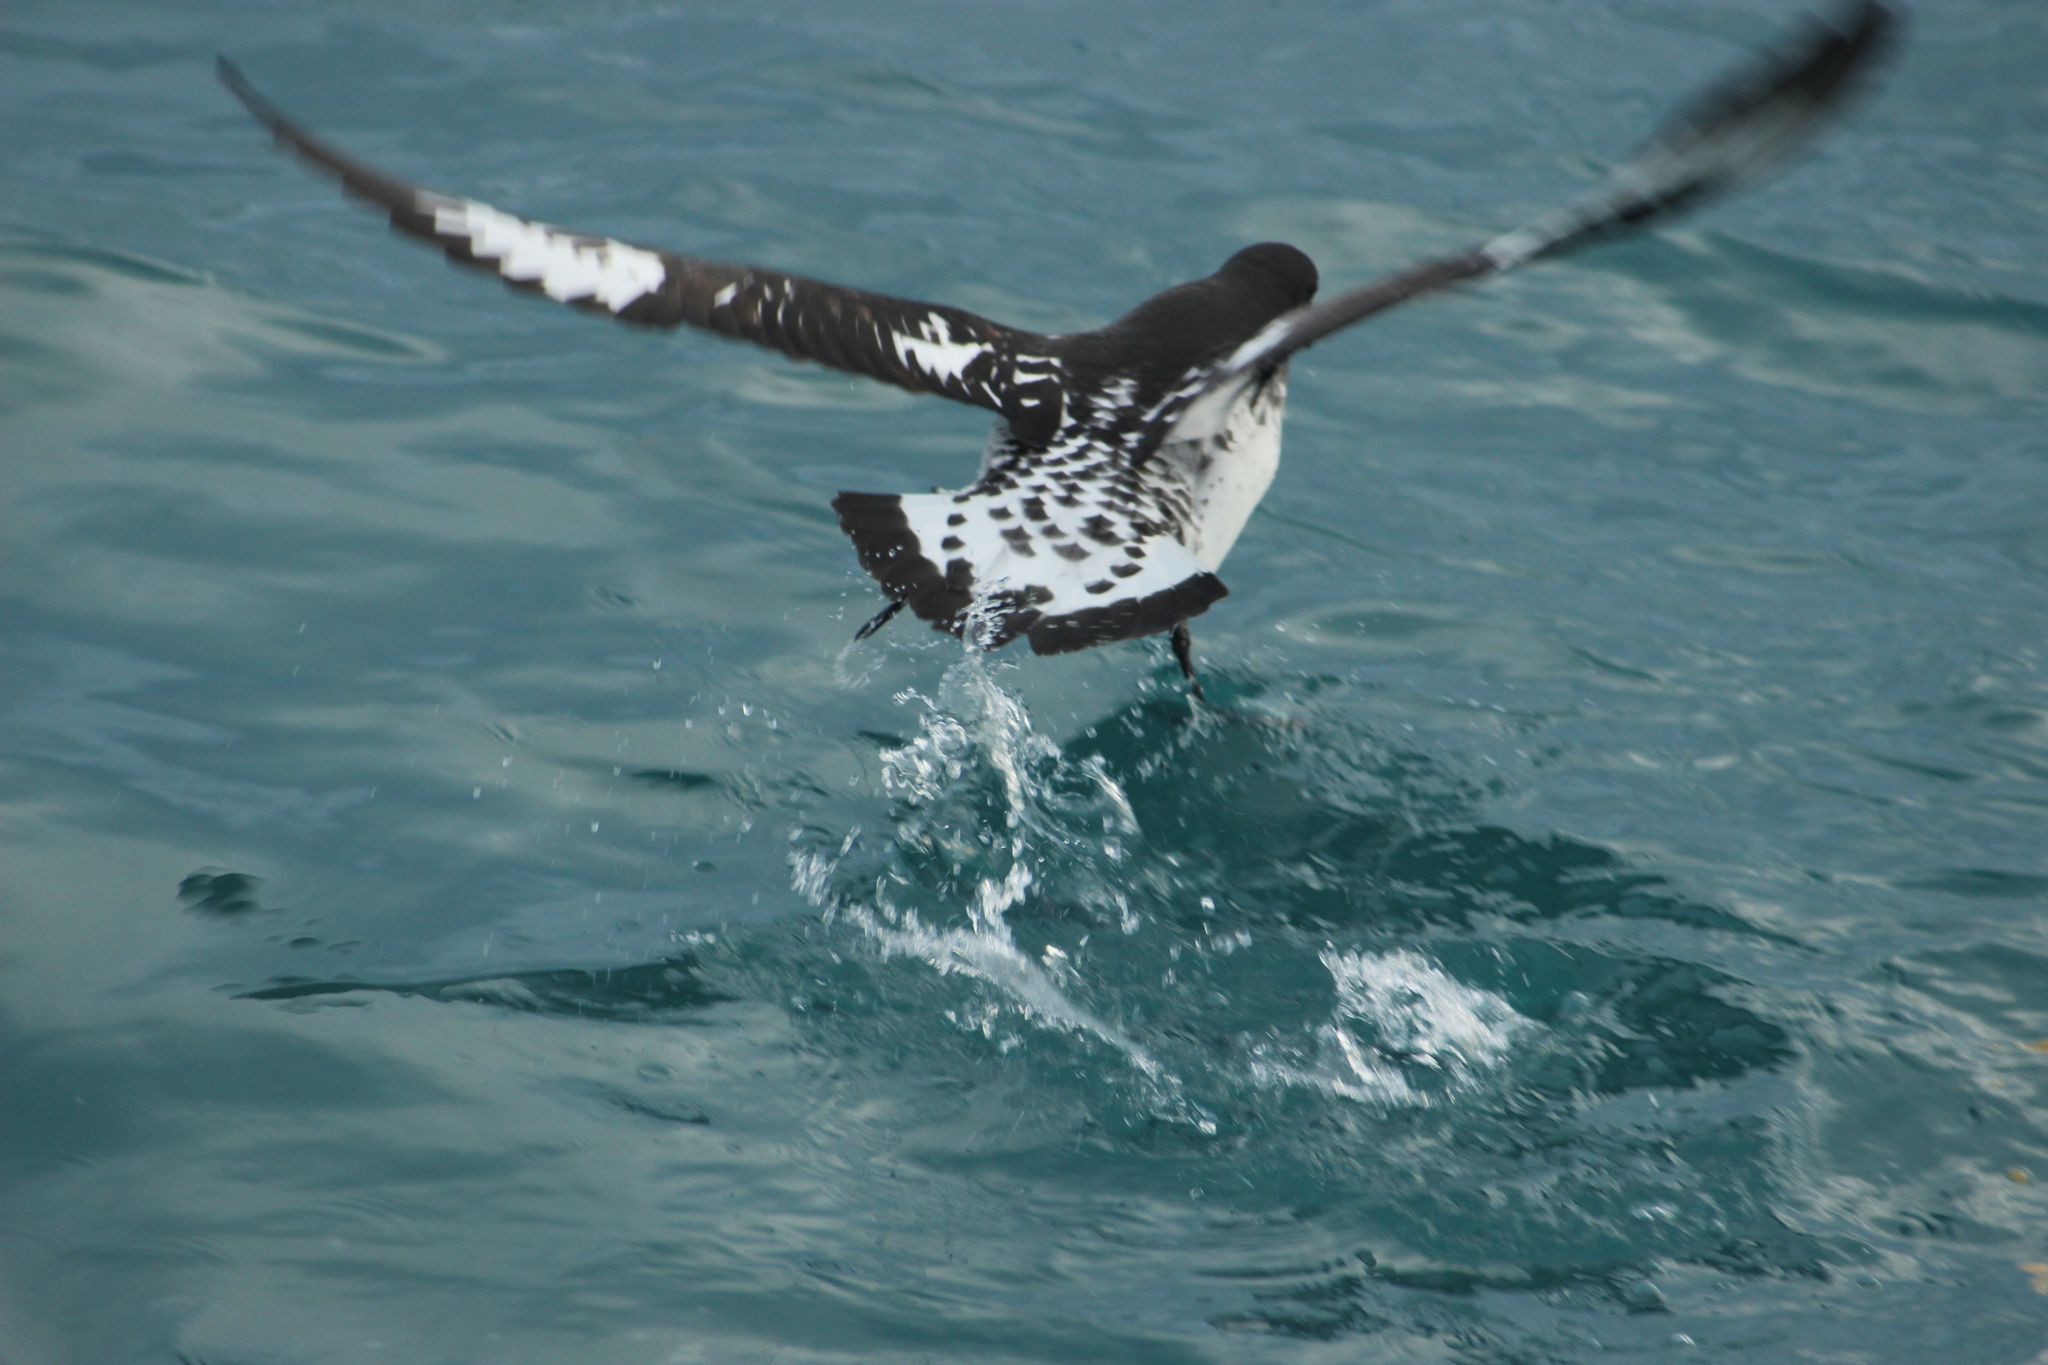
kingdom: Animalia
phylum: Chordata
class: Aves
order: Procellariiformes
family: Procellariidae
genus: Daption
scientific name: Daption capense
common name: Cape petrel
